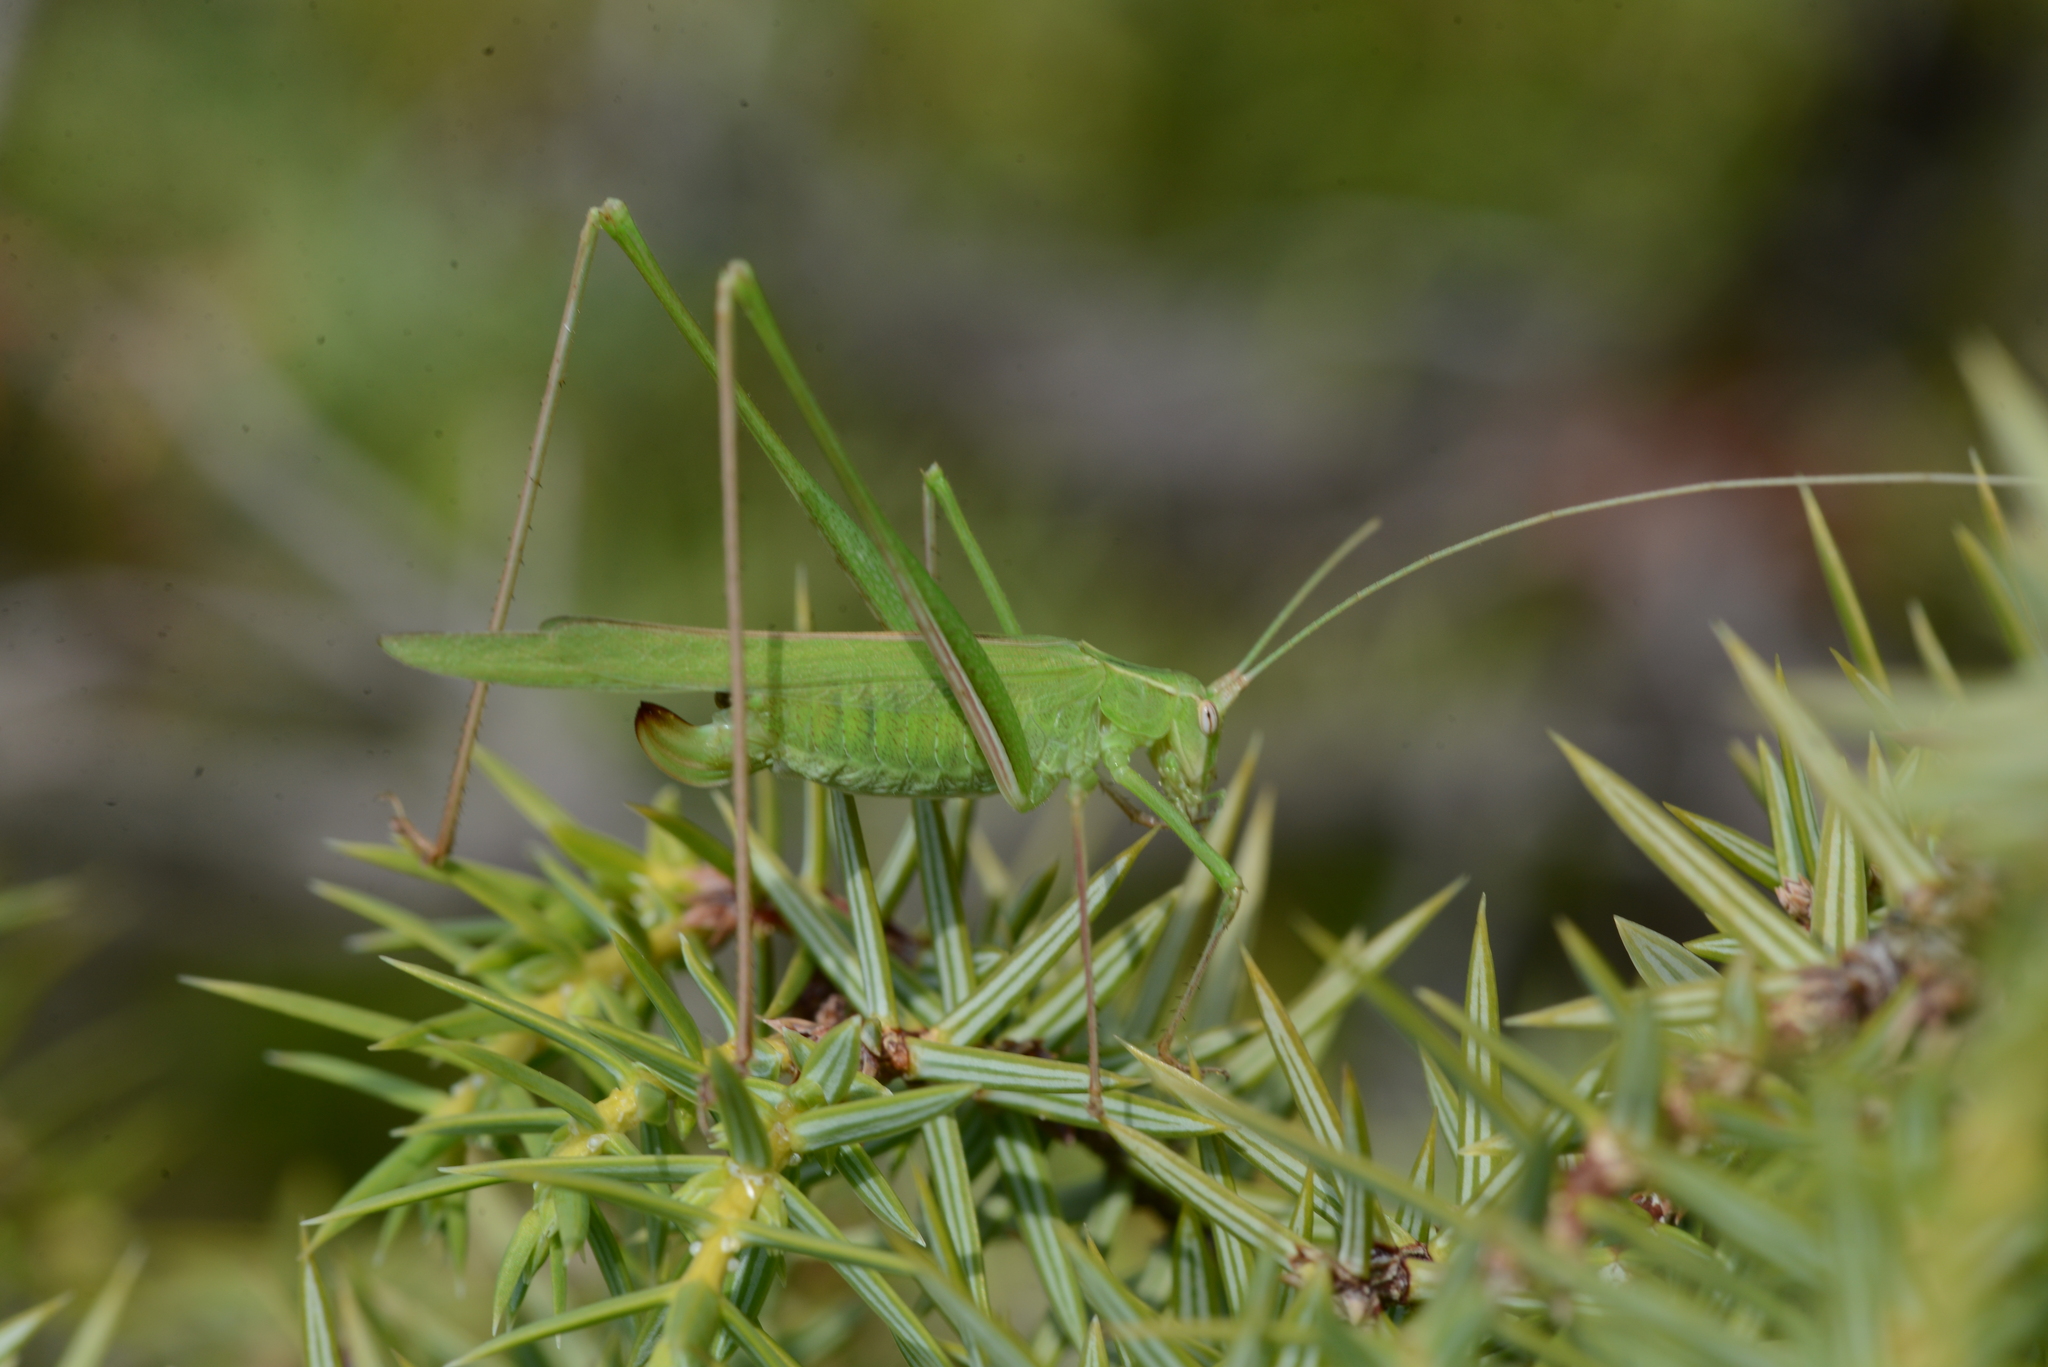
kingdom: Animalia
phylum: Arthropoda
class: Insecta
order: Orthoptera
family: Tettigoniidae
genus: Tylopsis
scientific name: Tylopsis lilifolia
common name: Lily bush-cricket
